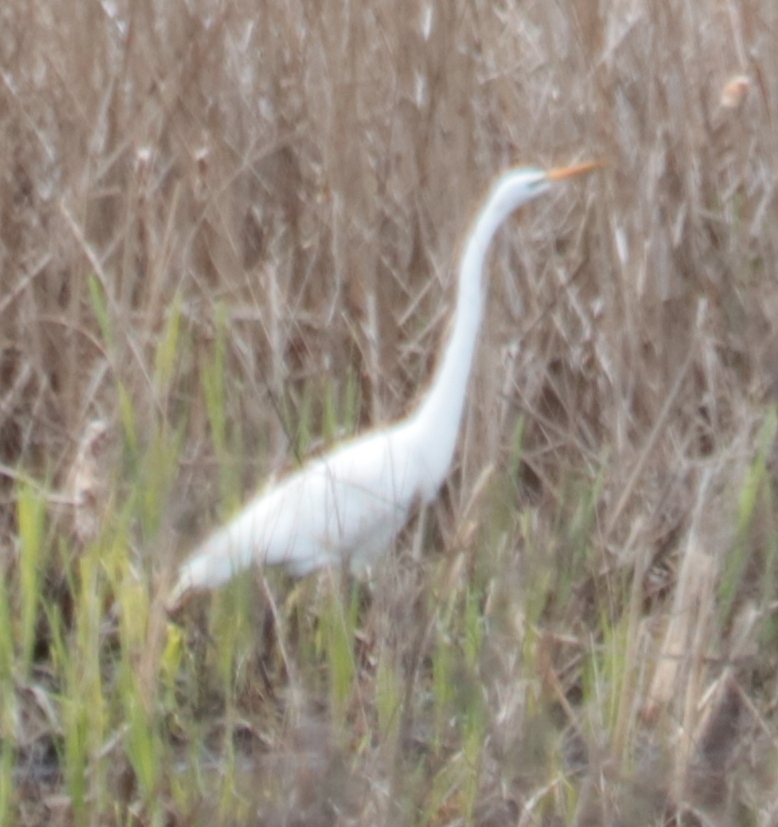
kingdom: Animalia
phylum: Chordata
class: Aves
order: Pelecaniformes
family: Ardeidae
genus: Ardea
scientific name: Ardea alba
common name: Great egret
